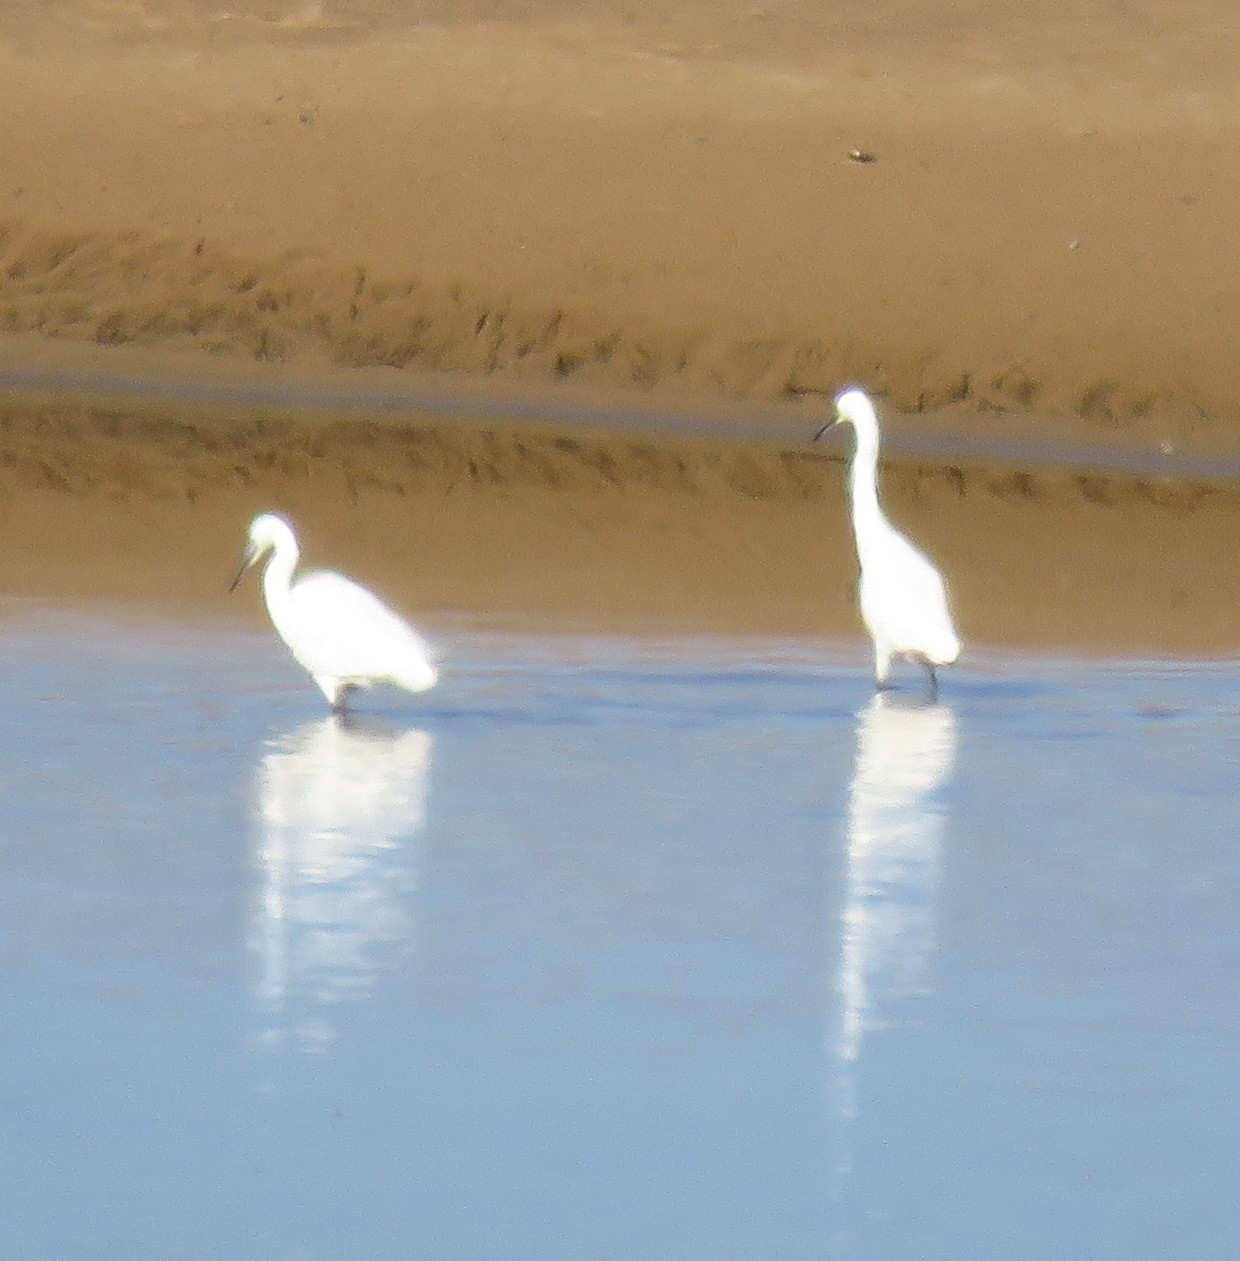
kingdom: Animalia
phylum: Chordata
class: Aves
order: Pelecaniformes
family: Ardeidae
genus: Egretta
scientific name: Egretta garzetta
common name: Little egret
